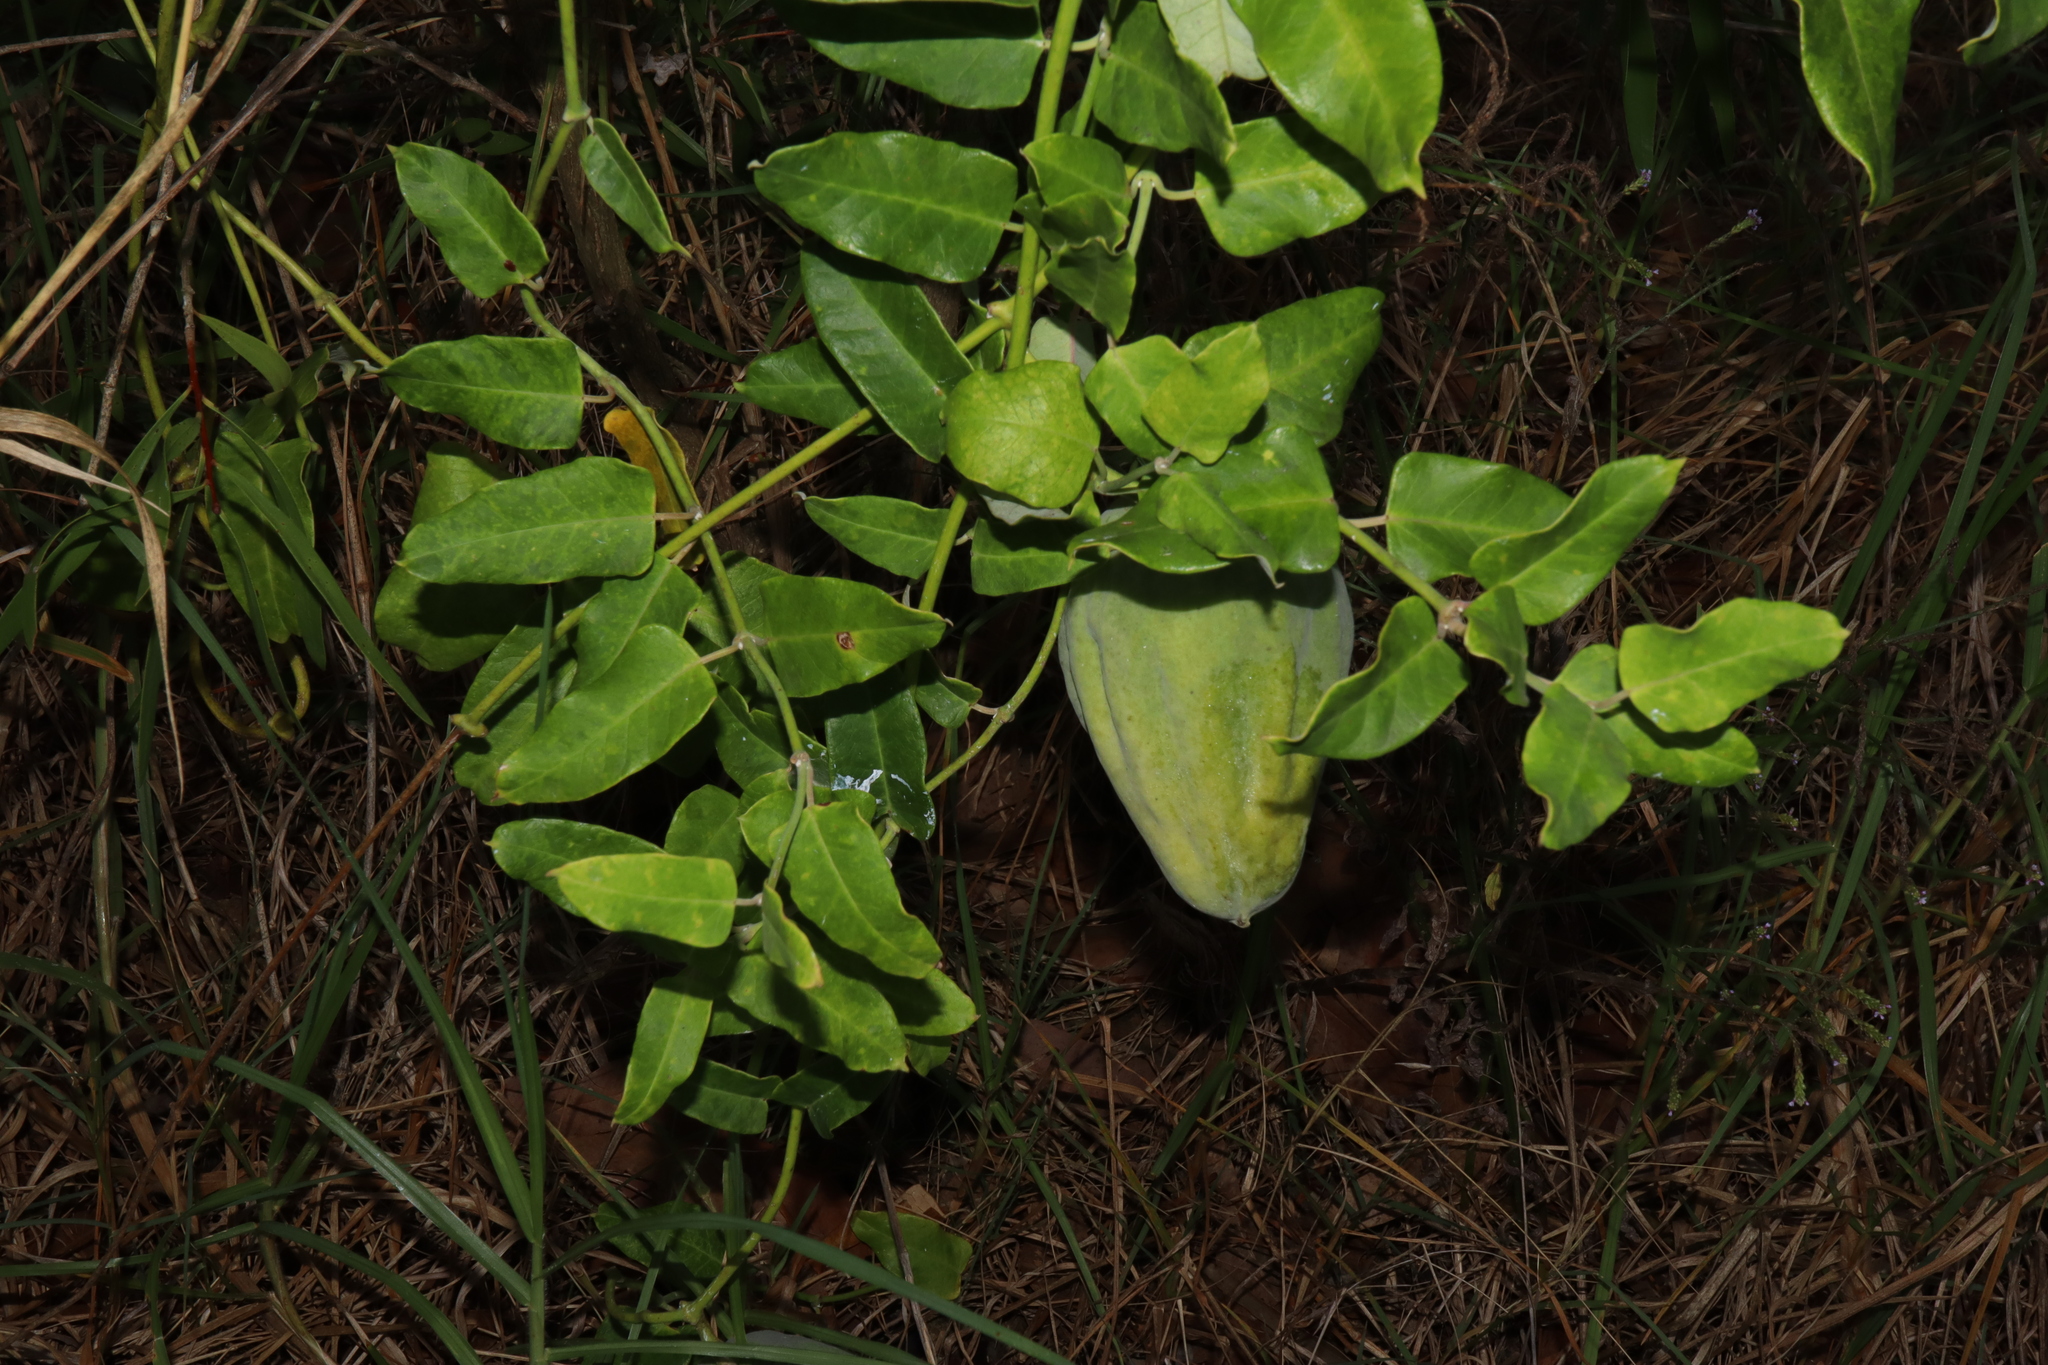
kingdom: Plantae
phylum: Tracheophyta
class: Magnoliopsida
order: Gentianales
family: Apocynaceae
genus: Araujia
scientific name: Araujia sericifera
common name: White bladderflower
